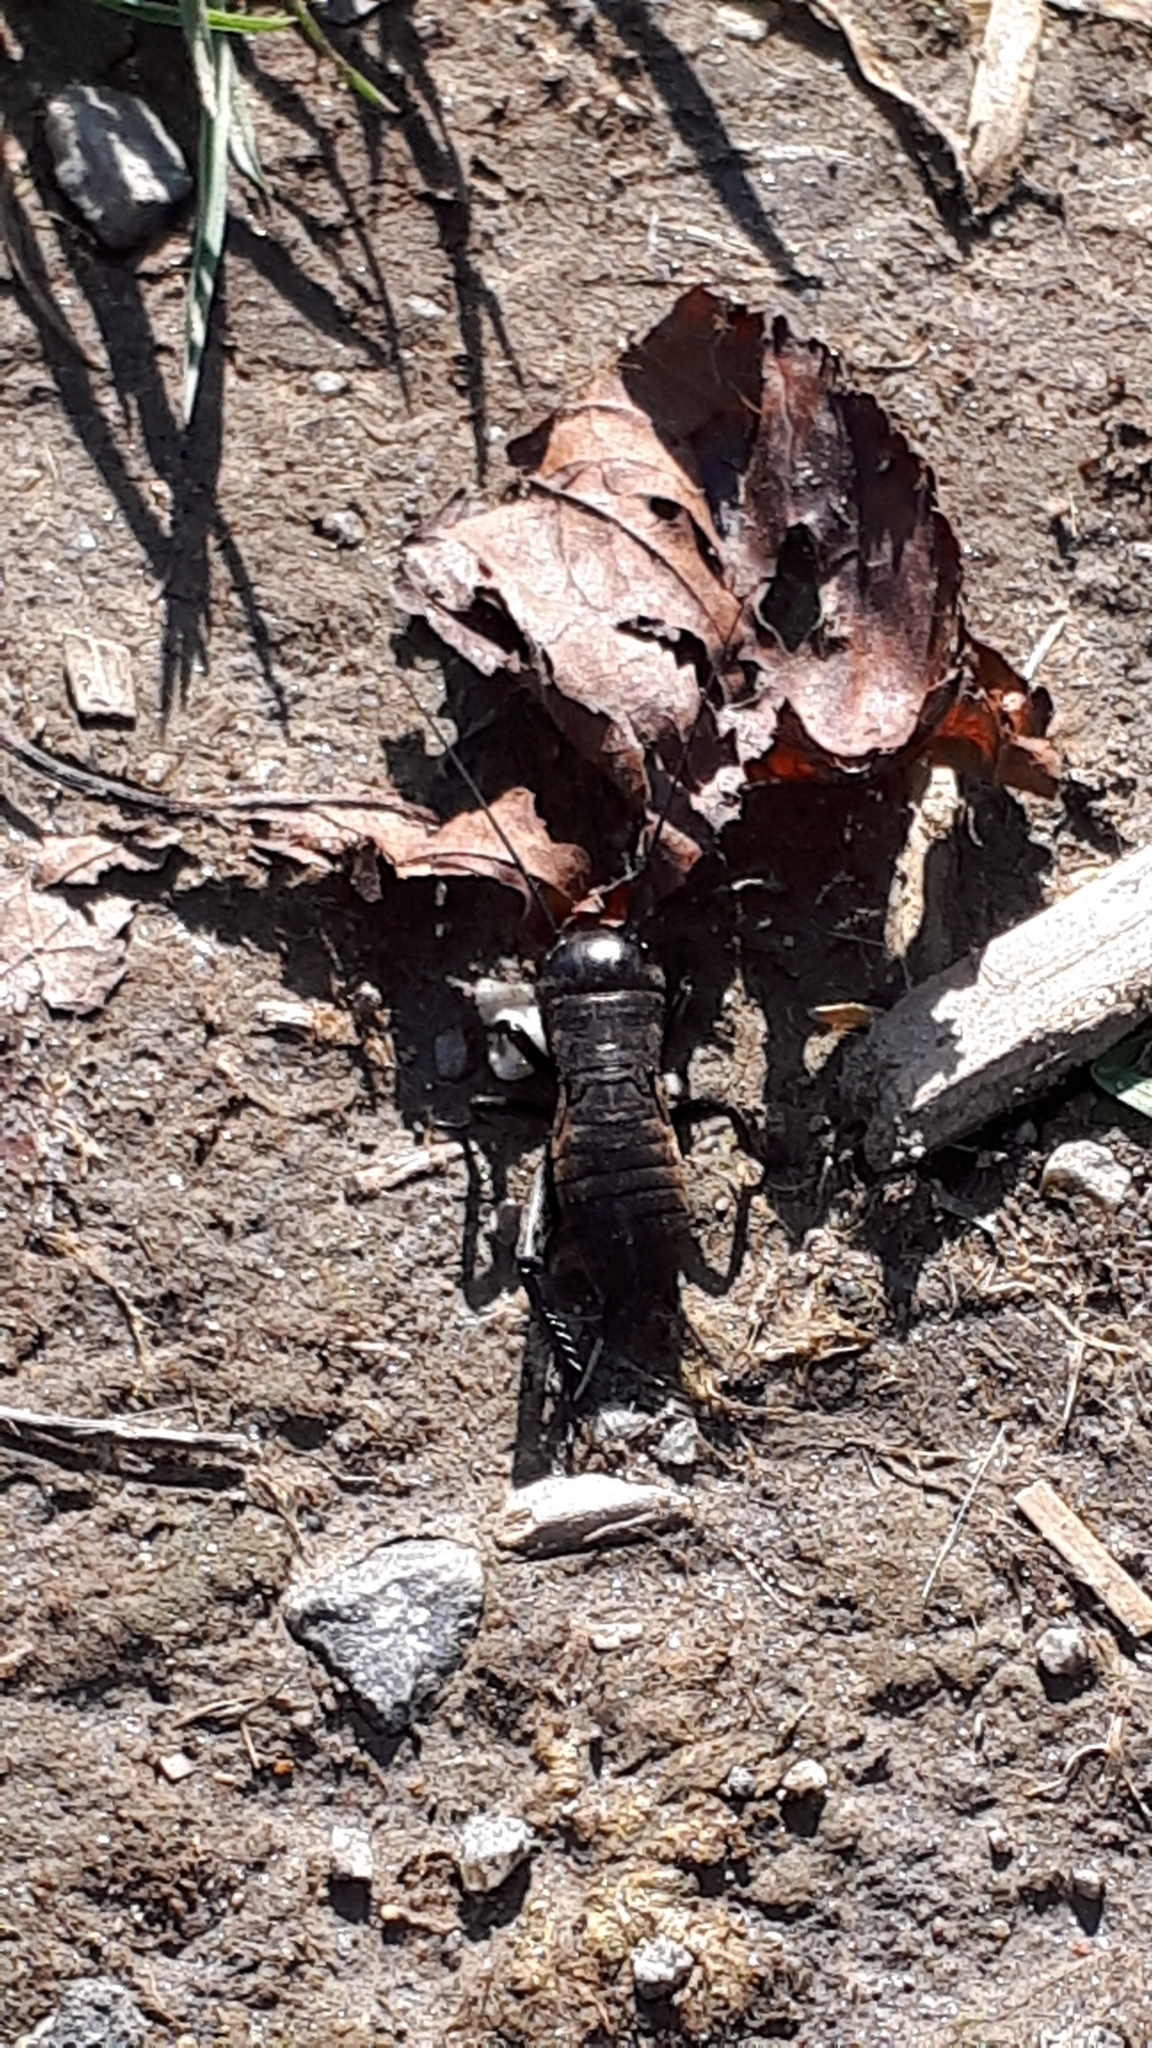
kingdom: Animalia
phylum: Arthropoda
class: Insecta
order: Orthoptera
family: Gryllidae
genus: Gryllus
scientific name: Gryllus campestris
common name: Field cricket
